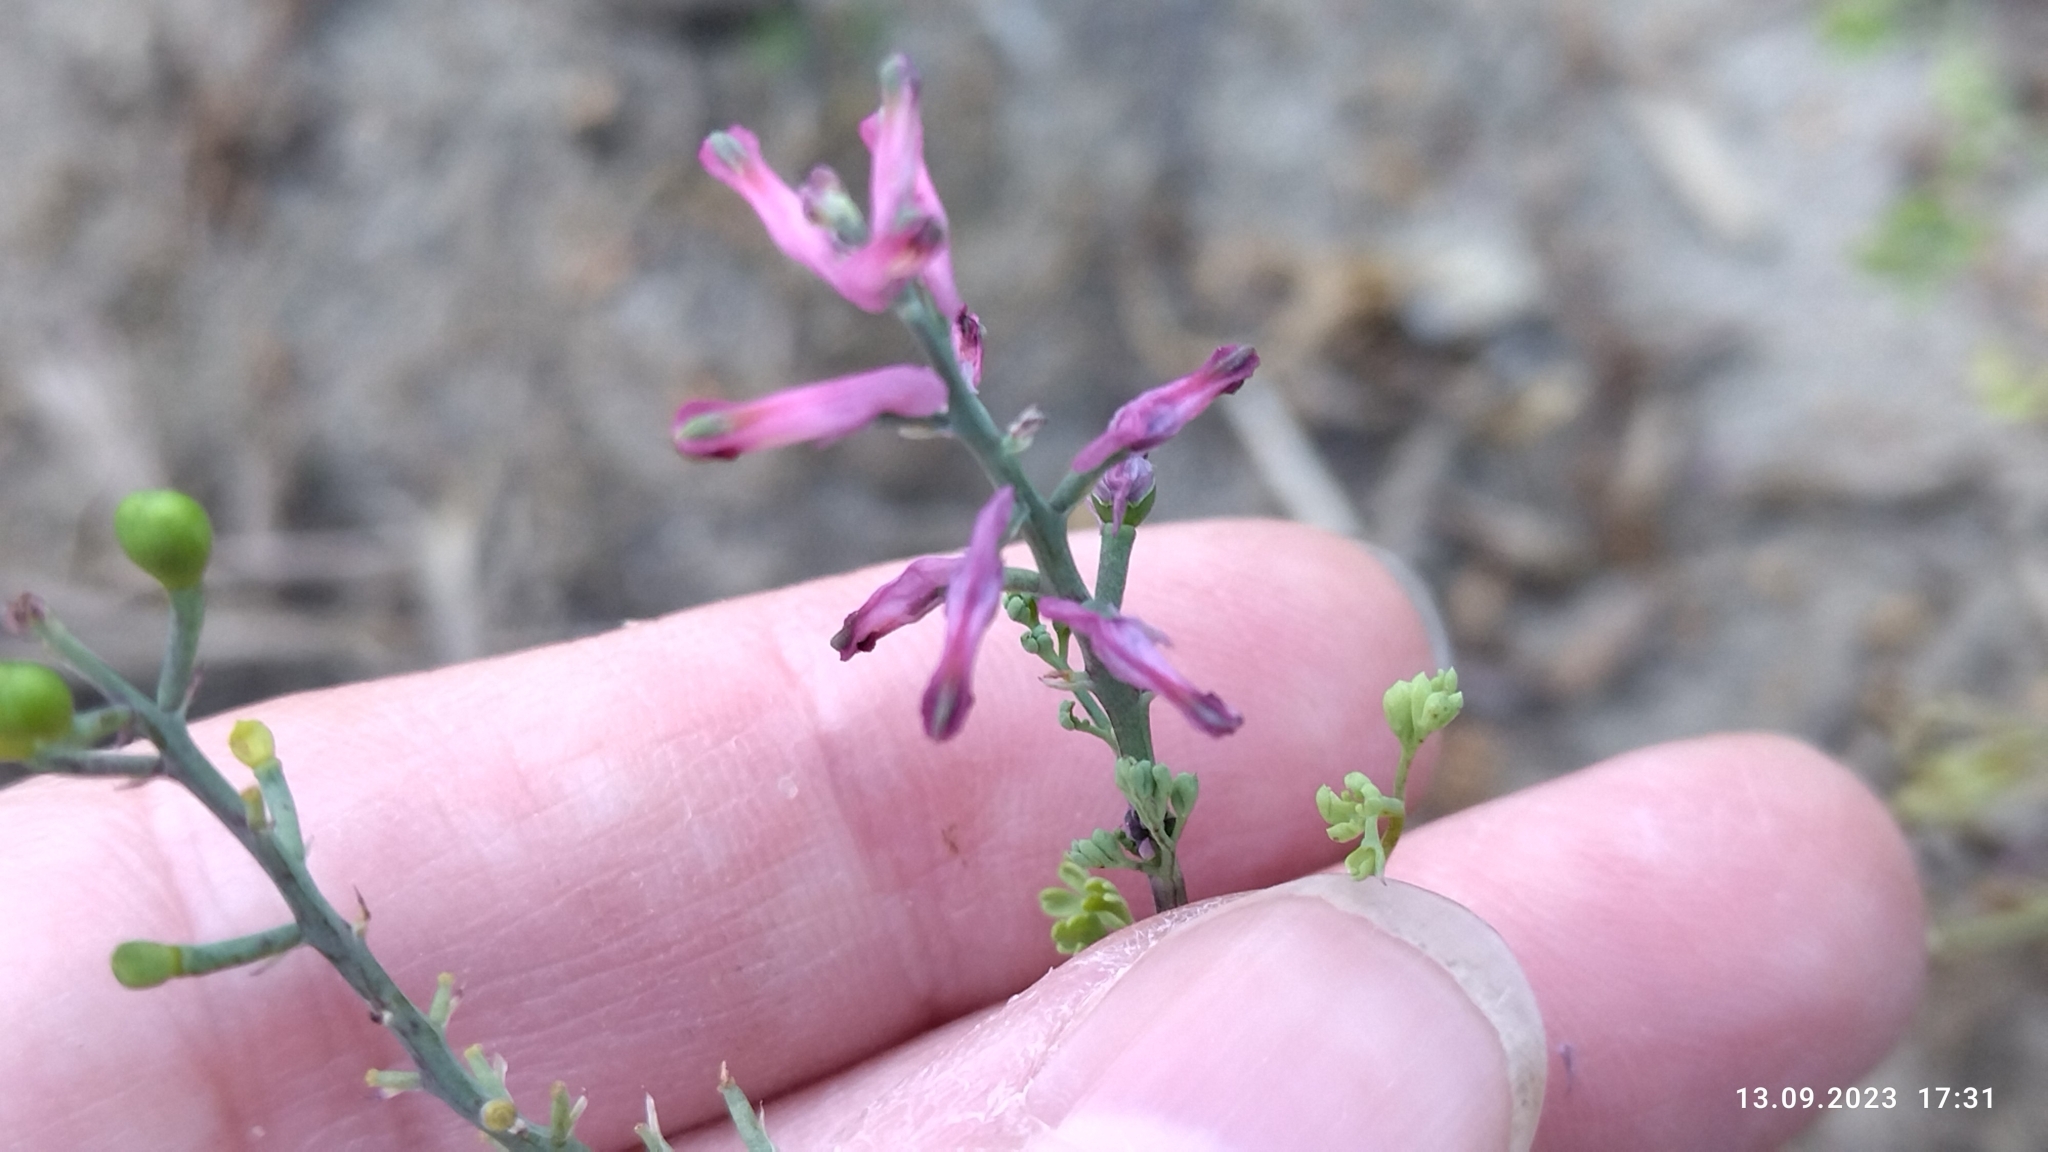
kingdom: Plantae
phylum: Tracheophyta
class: Magnoliopsida
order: Ranunculales
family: Papaveraceae
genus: Fumaria
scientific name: Fumaria officinalis
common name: Common fumitory
